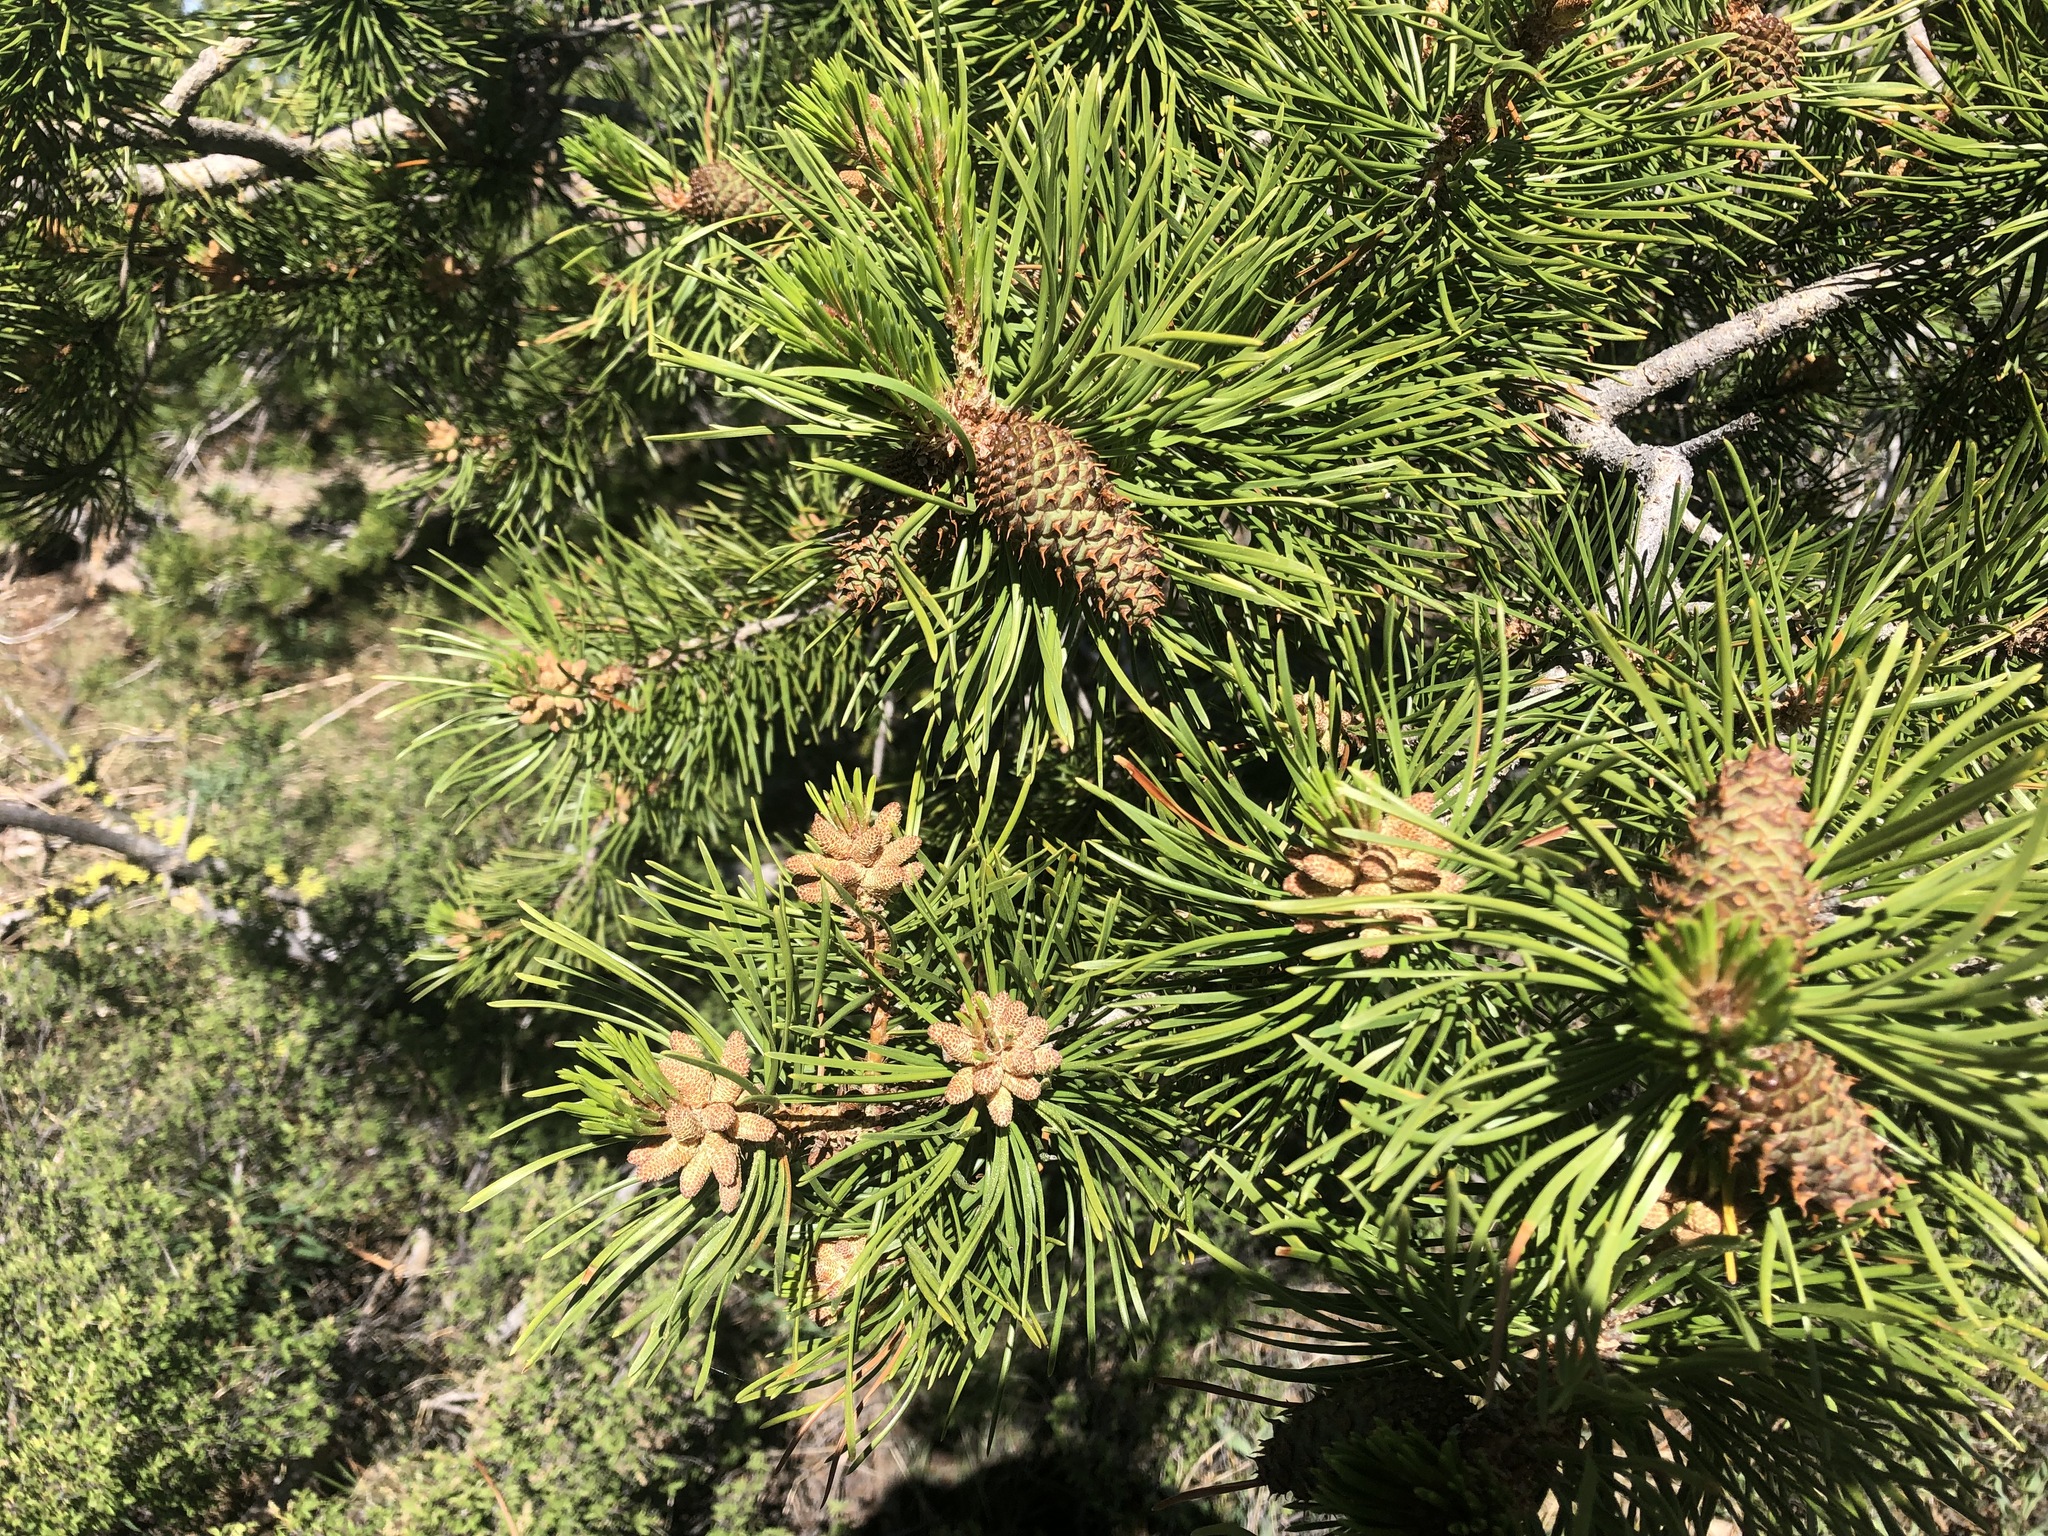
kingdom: Plantae
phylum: Tracheophyta
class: Pinopsida
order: Pinales
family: Pinaceae
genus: Pinus
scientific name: Pinus contorta
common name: Lodgepole pine
